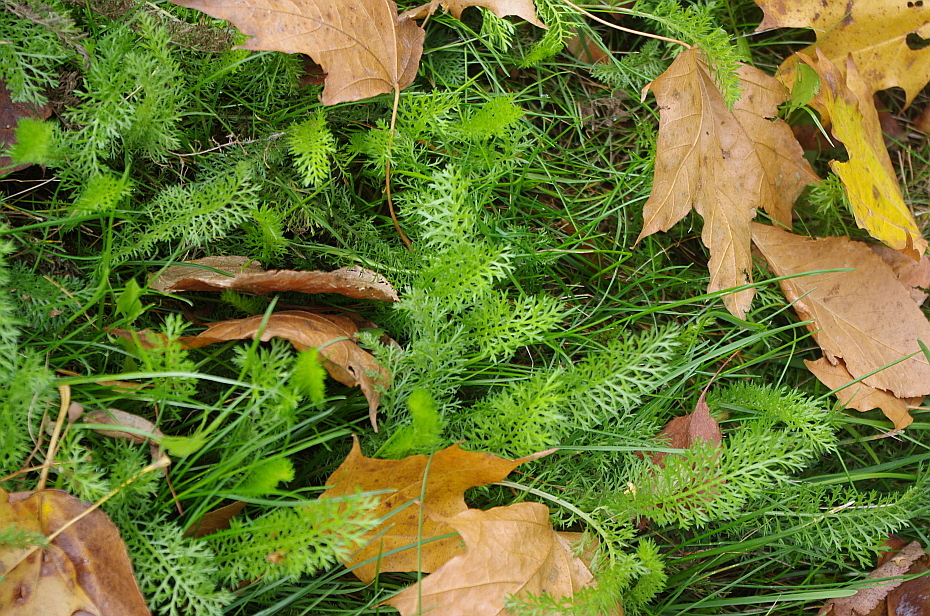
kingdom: Plantae
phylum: Tracheophyta
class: Magnoliopsida
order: Asterales
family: Asteraceae
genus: Achillea
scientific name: Achillea millefolium
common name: Yarrow
